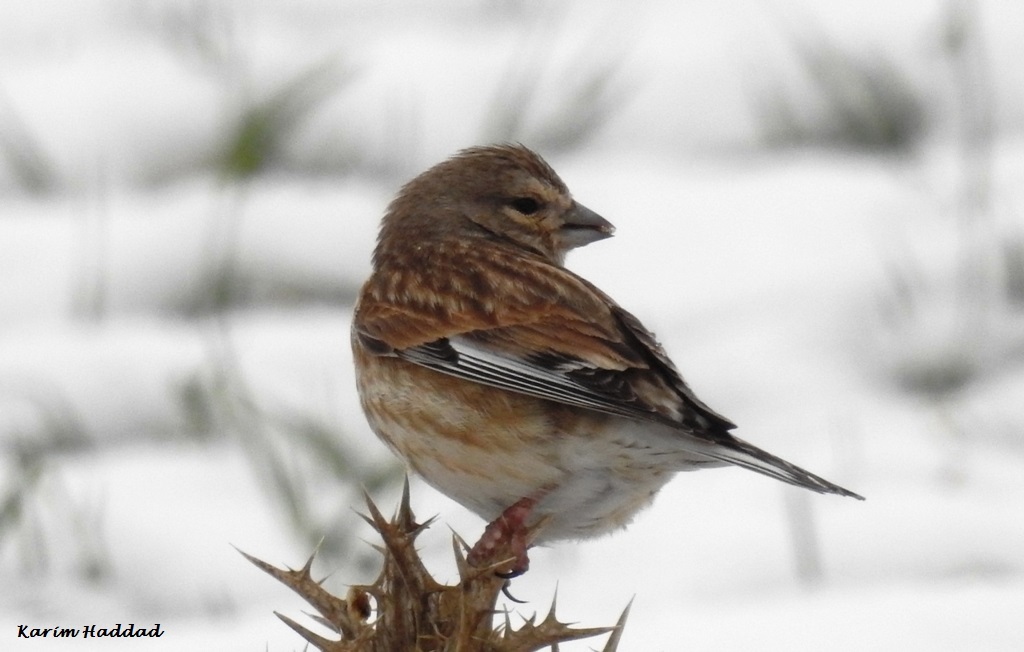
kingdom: Animalia
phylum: Chordata
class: Aves
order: Passeriformes
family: Fringillidae
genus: Linaria
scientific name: Linaria cannabina
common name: Common linnet
